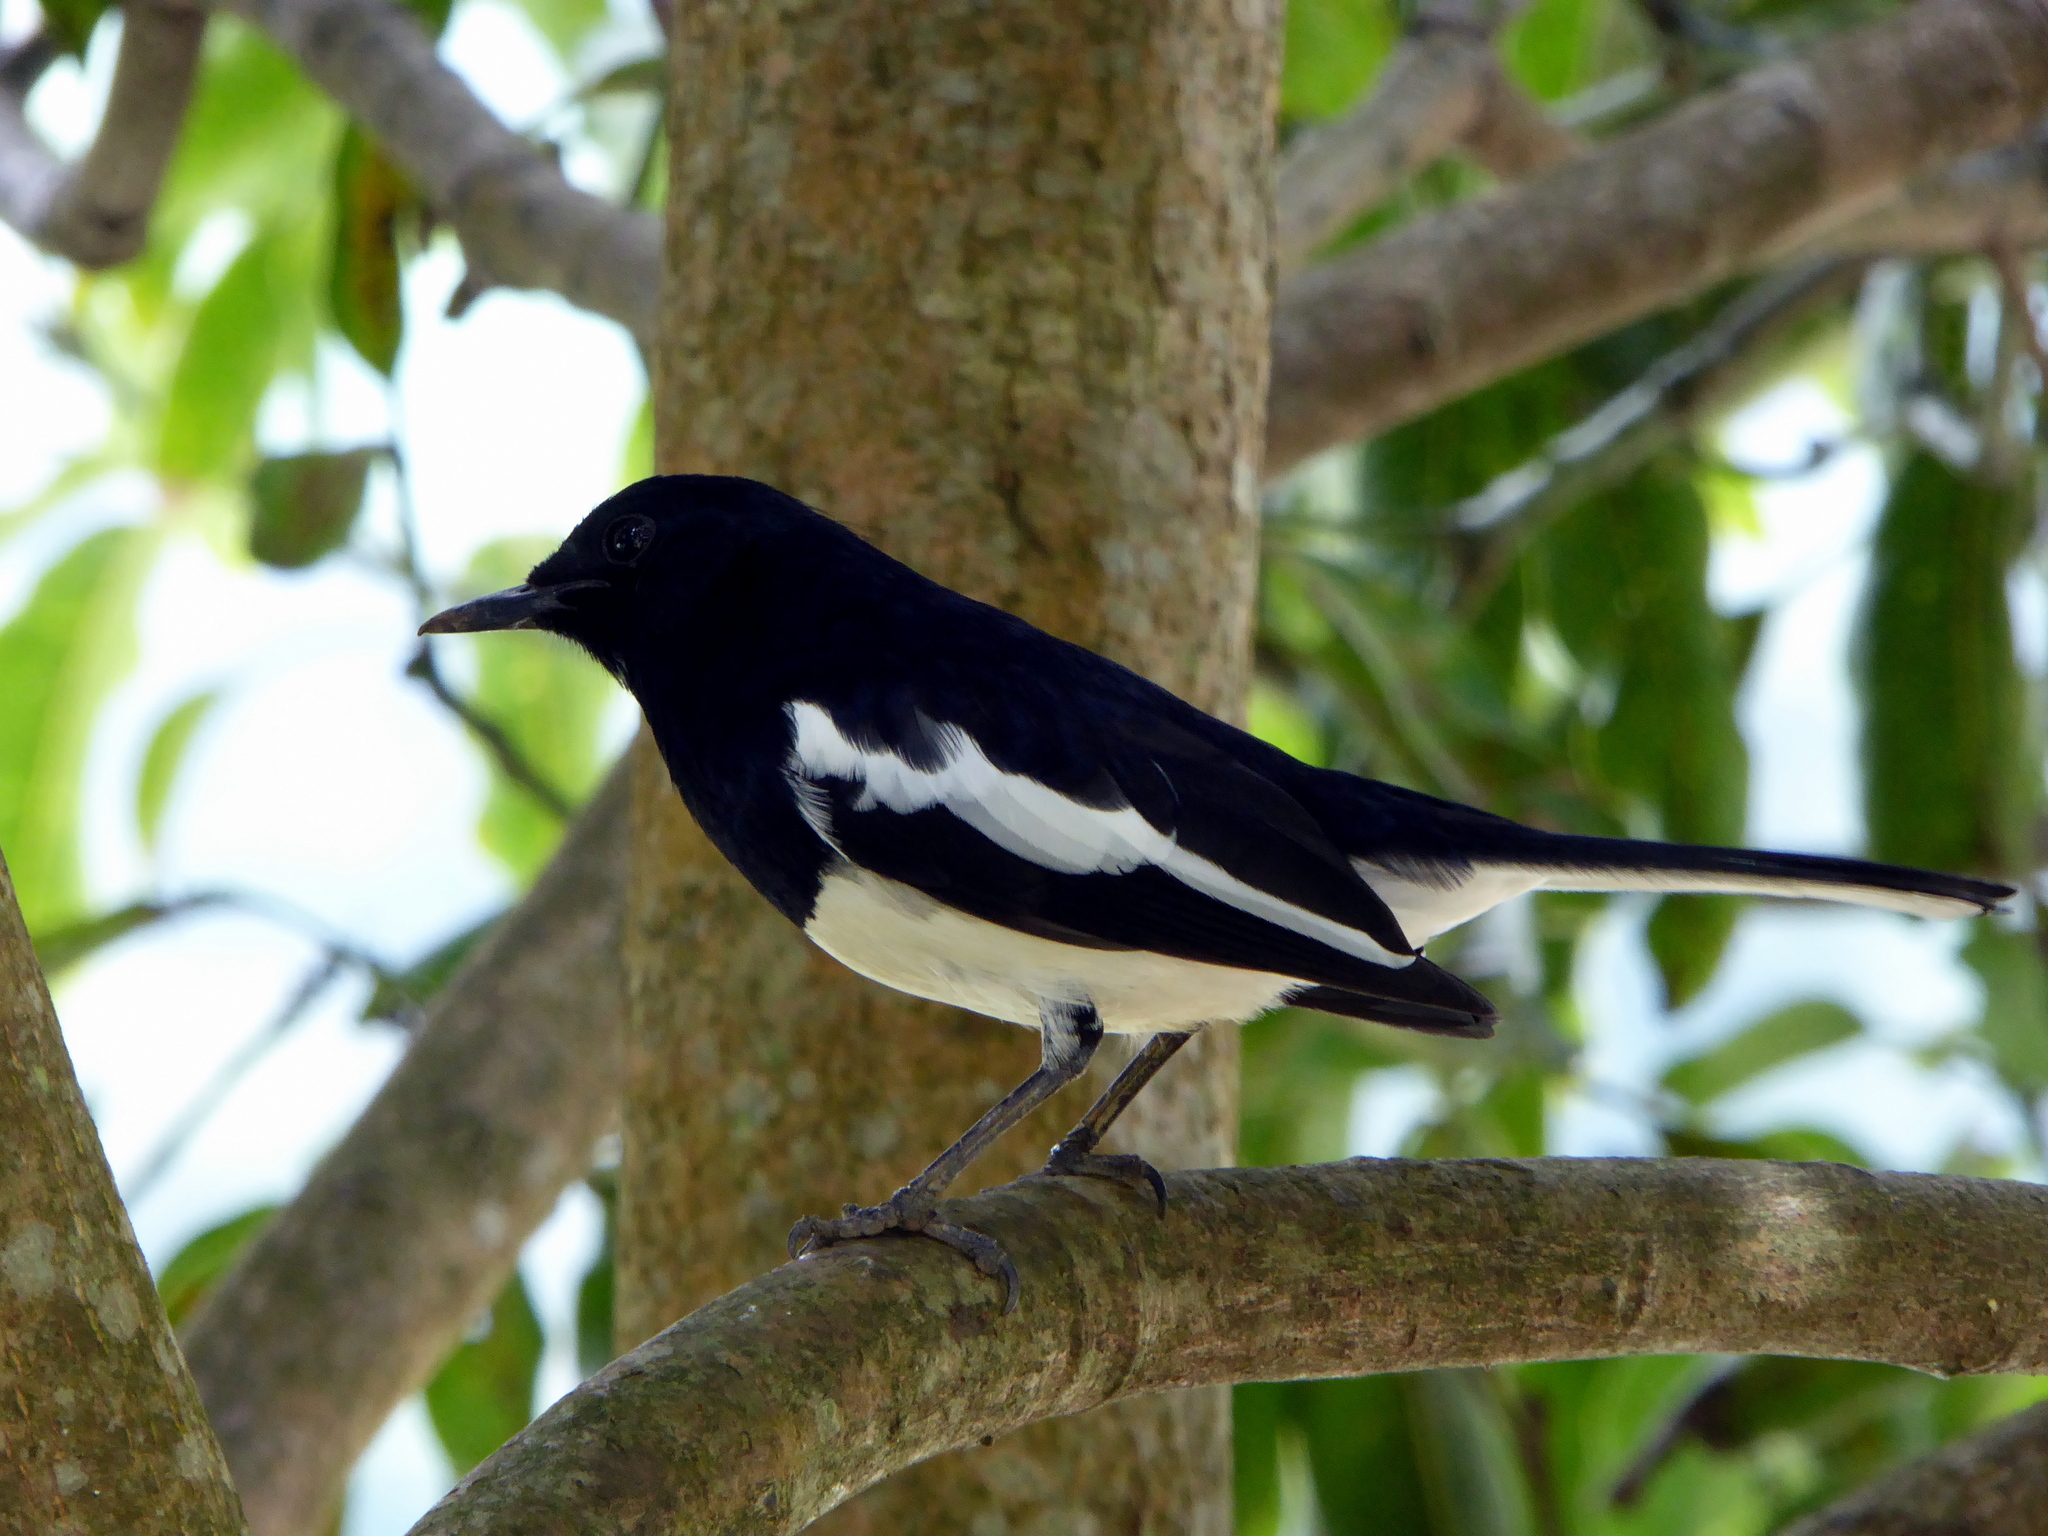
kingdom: Animalia
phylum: Chordata
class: Aves
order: Passeriformes
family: Muscicapidae
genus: Copsychus
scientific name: Copsychus saularis
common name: Oriental magpie-robin
